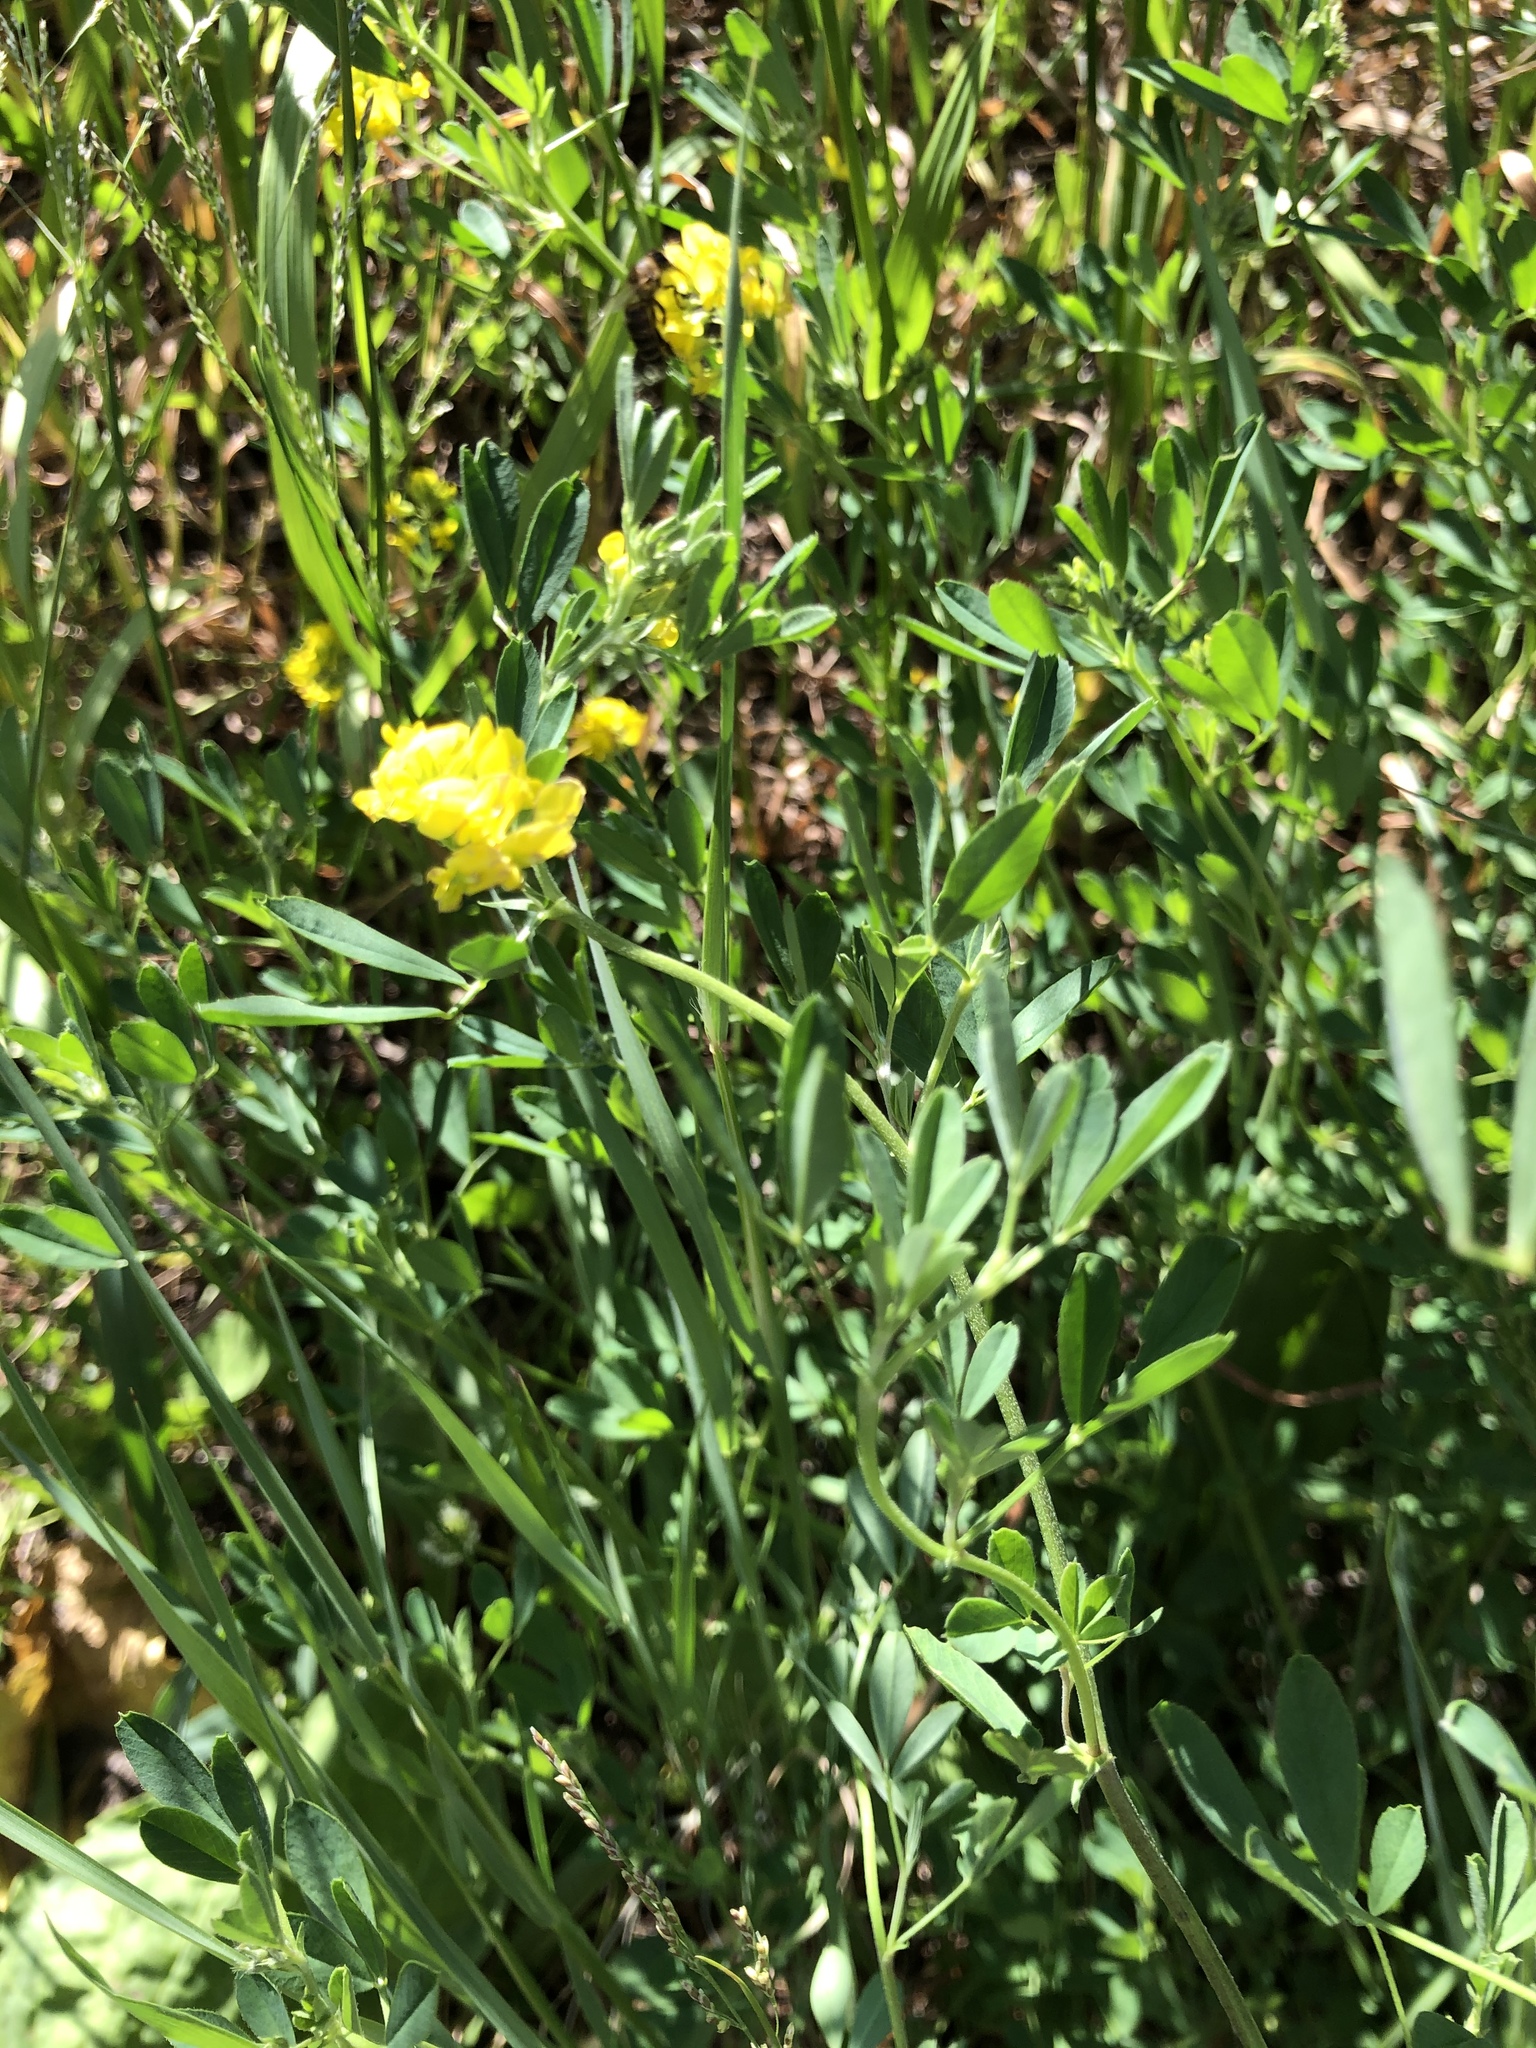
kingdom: Plantae
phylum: Tracheophyta
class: Magnoliopsida
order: Fabales
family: Fabaceae
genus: Medicago
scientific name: Medicago falcata
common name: Sickle medick
